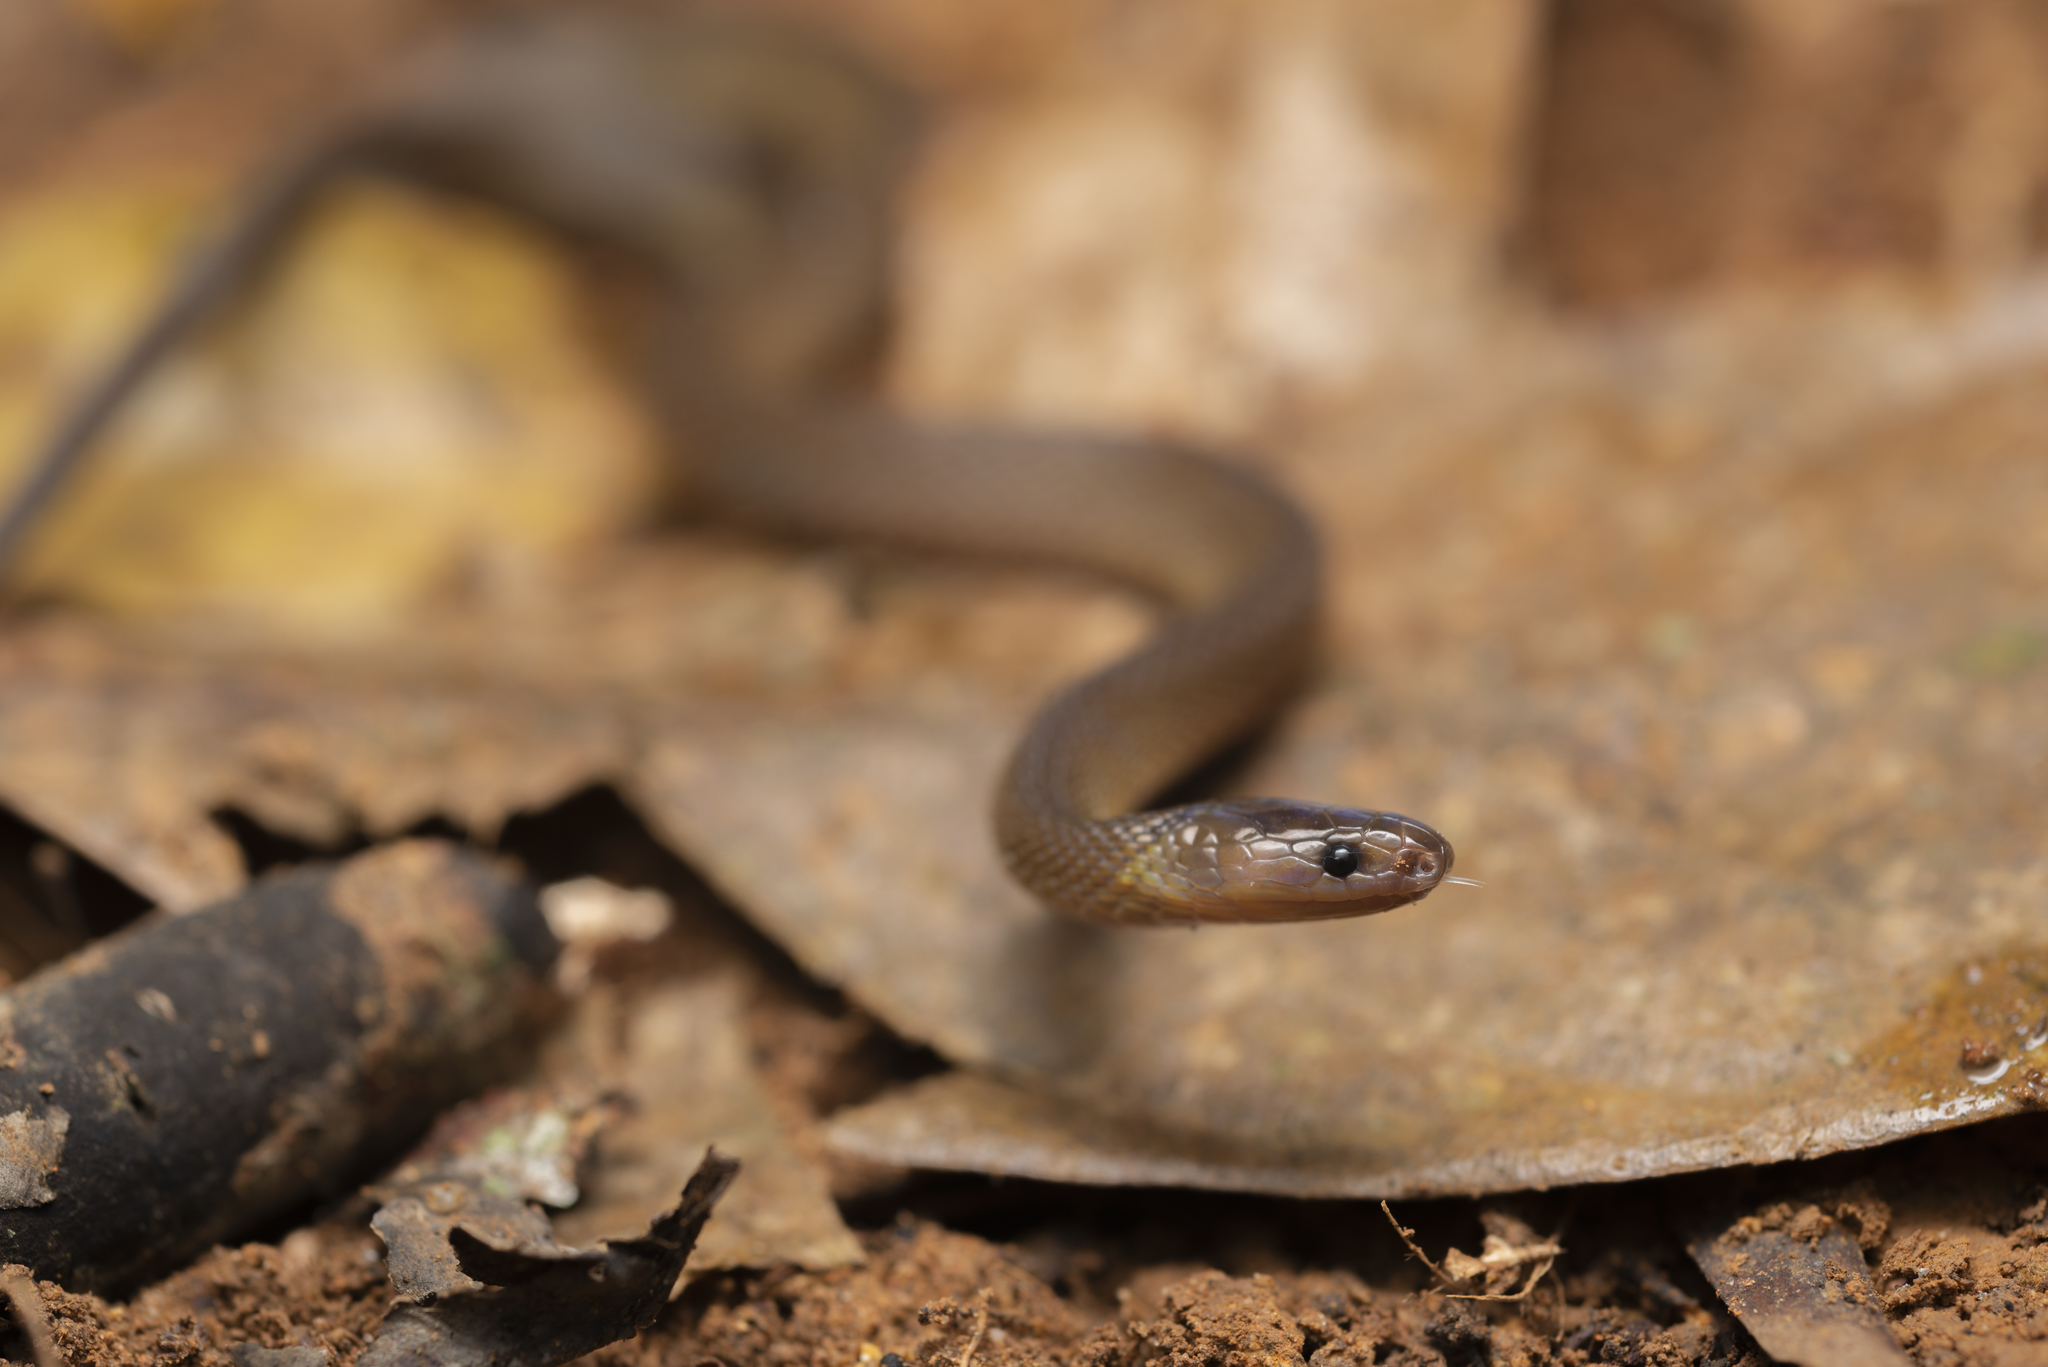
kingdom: Animalia
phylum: Chordata
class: Squamata
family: Xenodermidae
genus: Achalinus
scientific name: Achalinus rufescens
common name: Rufous burrowing snake
